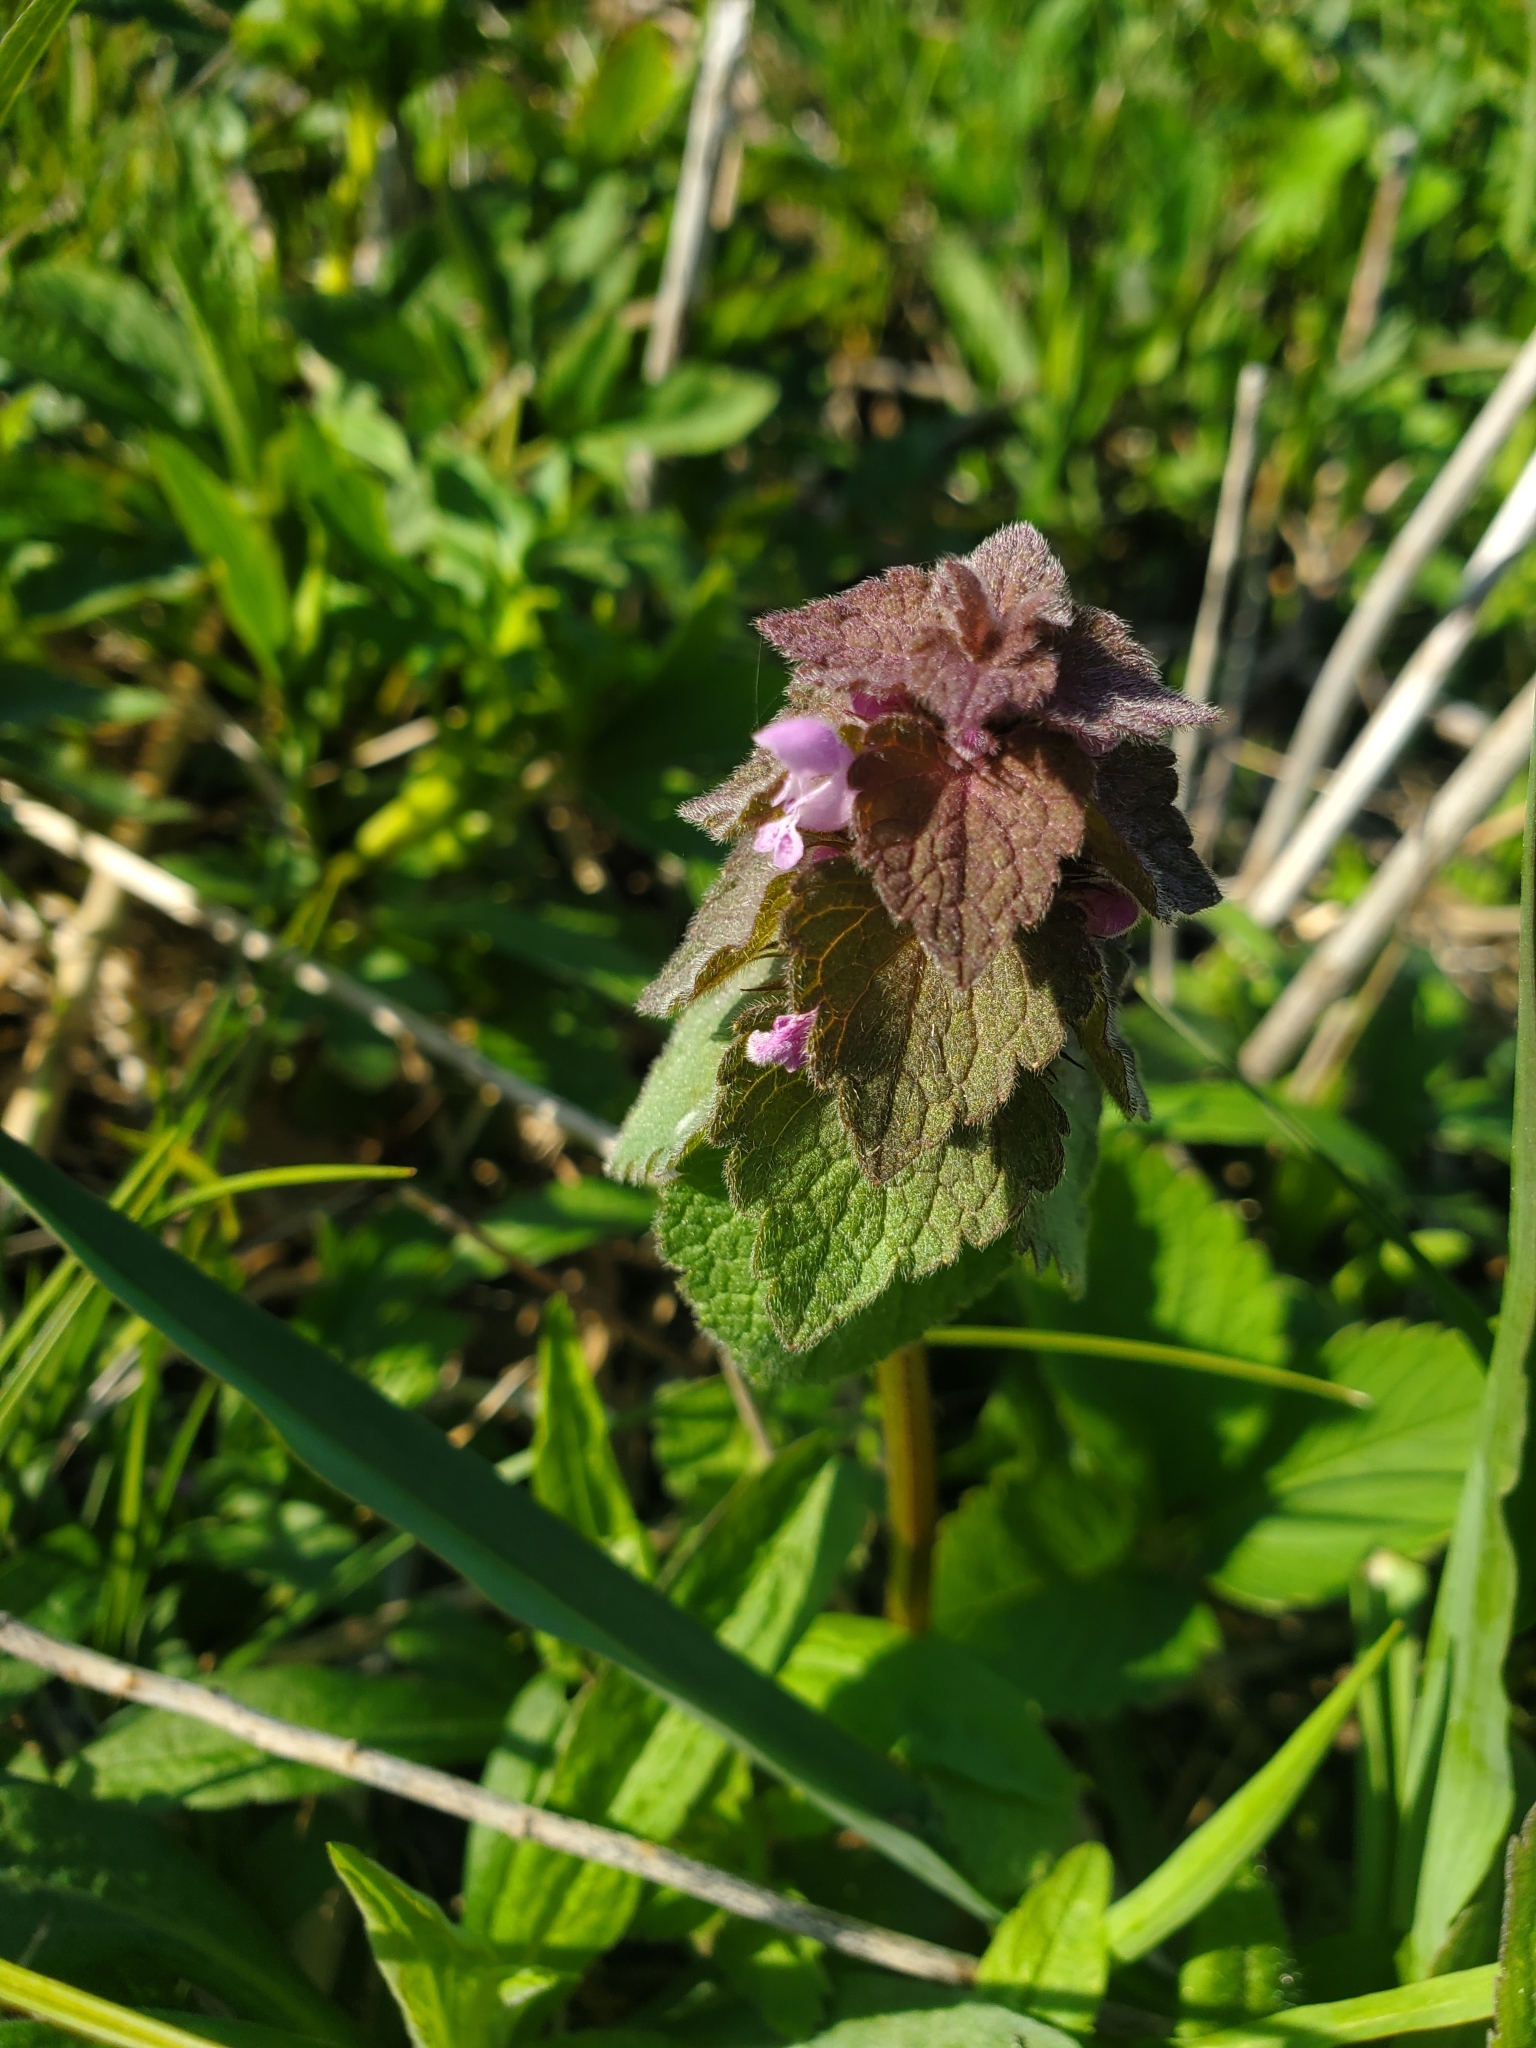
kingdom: Plantae
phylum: Tracheophyta
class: Magnoliopsida
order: Lamiales
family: Lamiaceae
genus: Lamium
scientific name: Lamium purpureum
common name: Red dead-nettle
